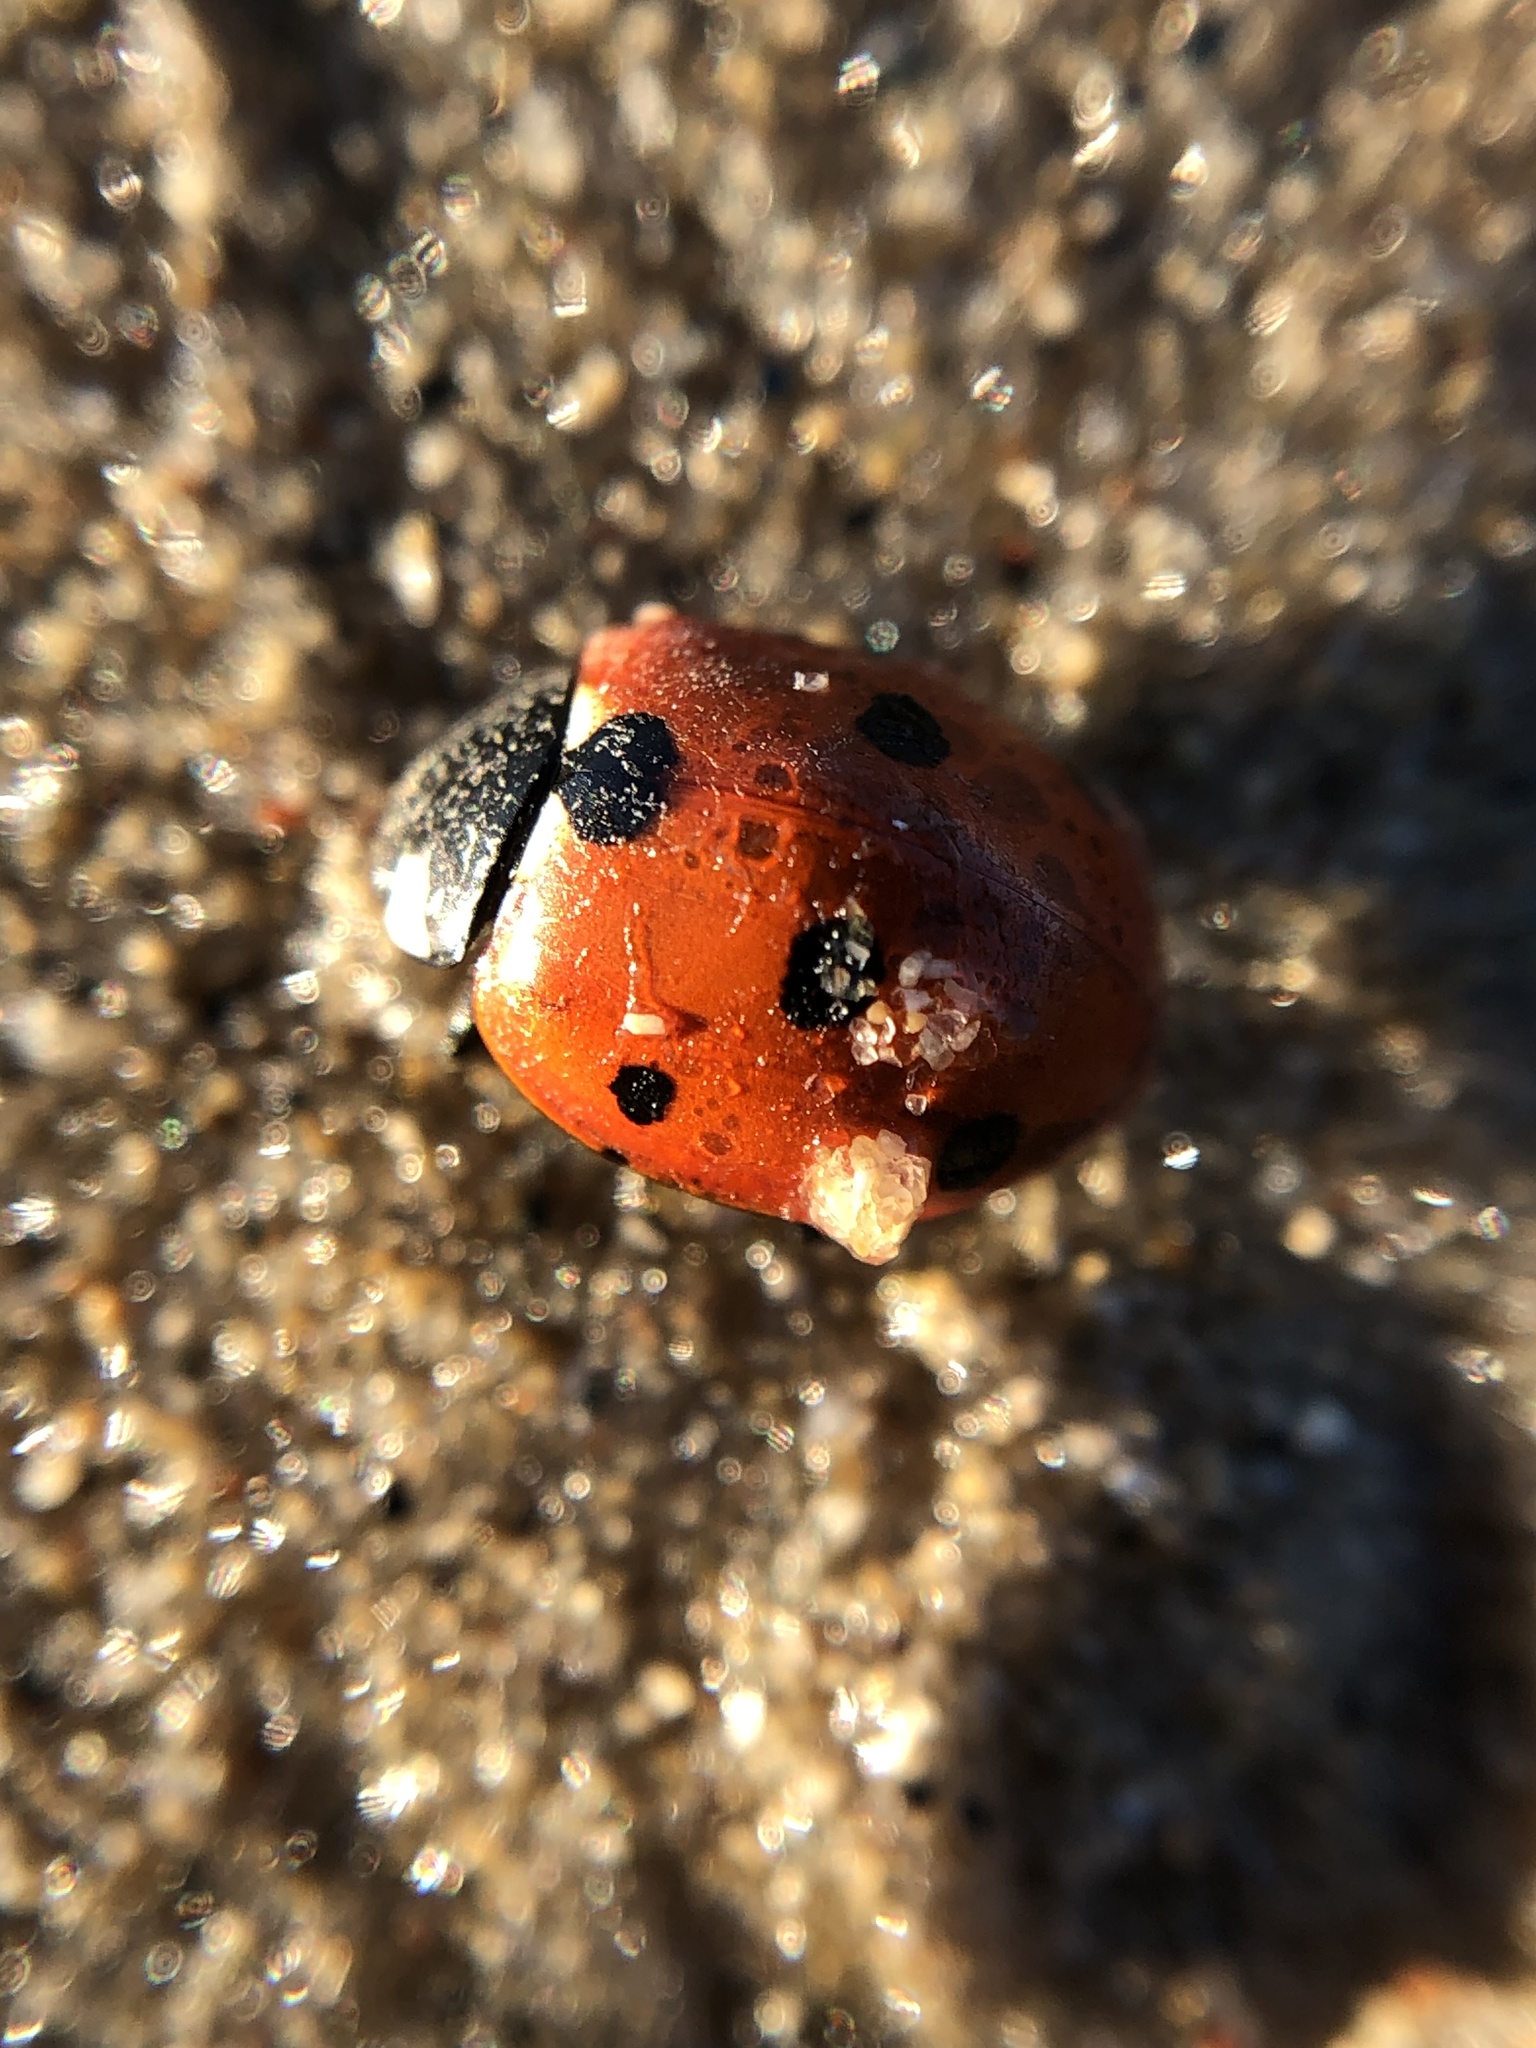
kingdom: Animalia
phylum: Arthropoda
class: Insecta
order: Coleoptera
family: Coccinellidae
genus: Coccinella
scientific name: Coccinella septempunctata
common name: Sevenspotted lady beetle
